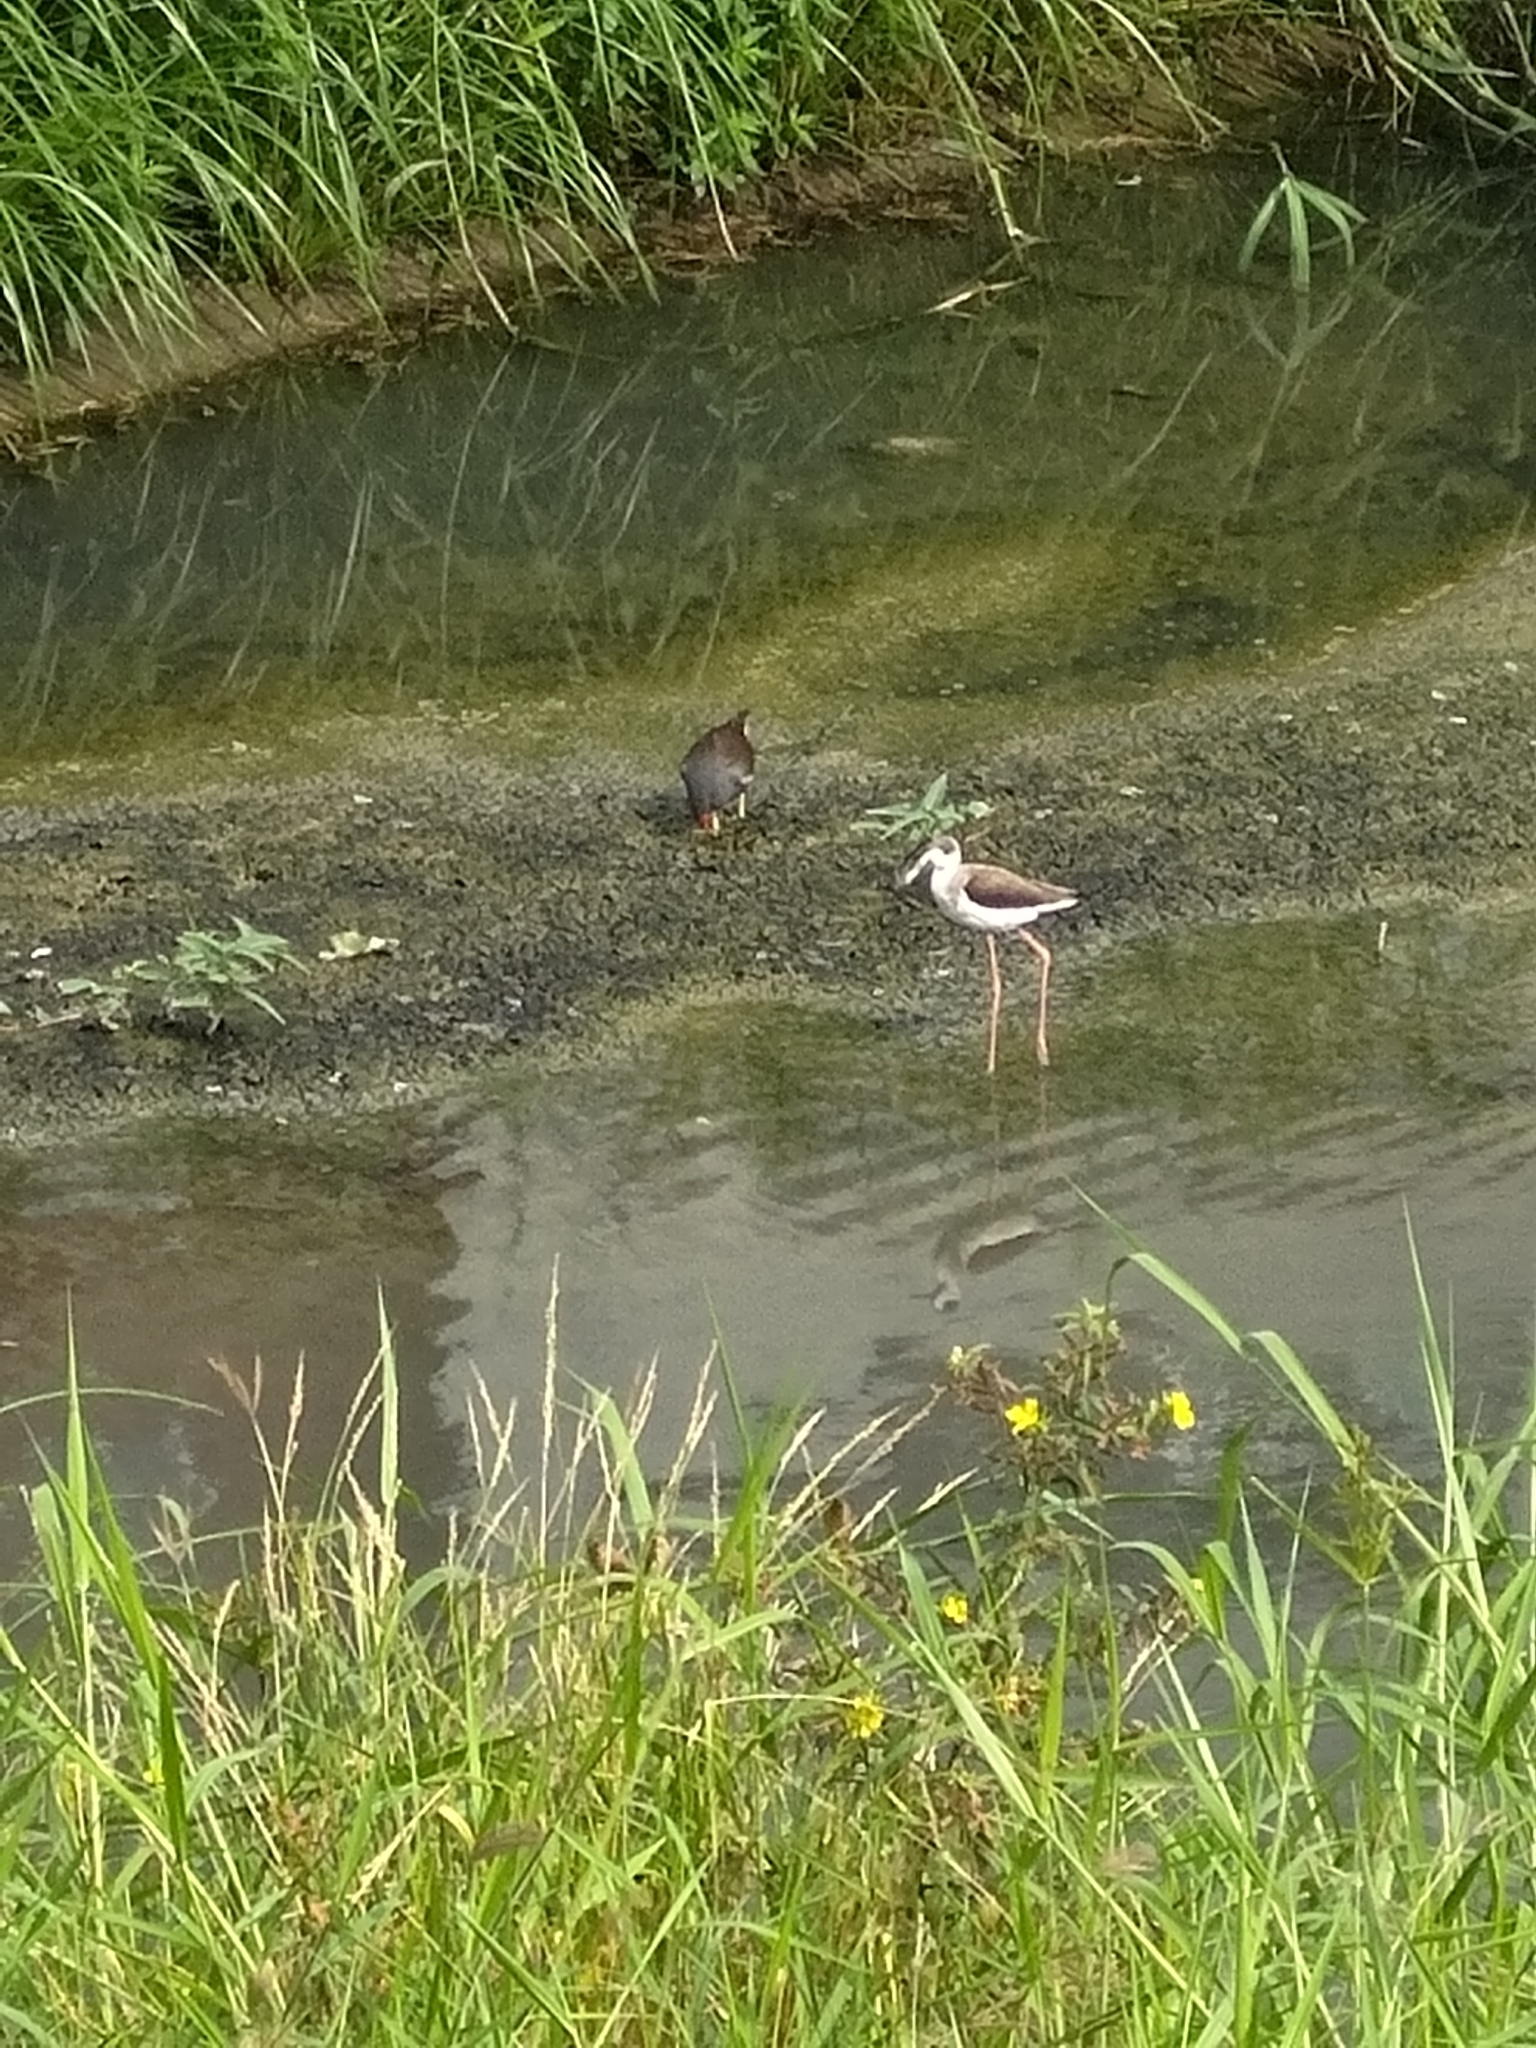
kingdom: Animalia
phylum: Chordata
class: Aves
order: Charadriiformes
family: Recurvirostridae
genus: Himantopus
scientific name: Himantopus himantopus
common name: Black-winged stilt
